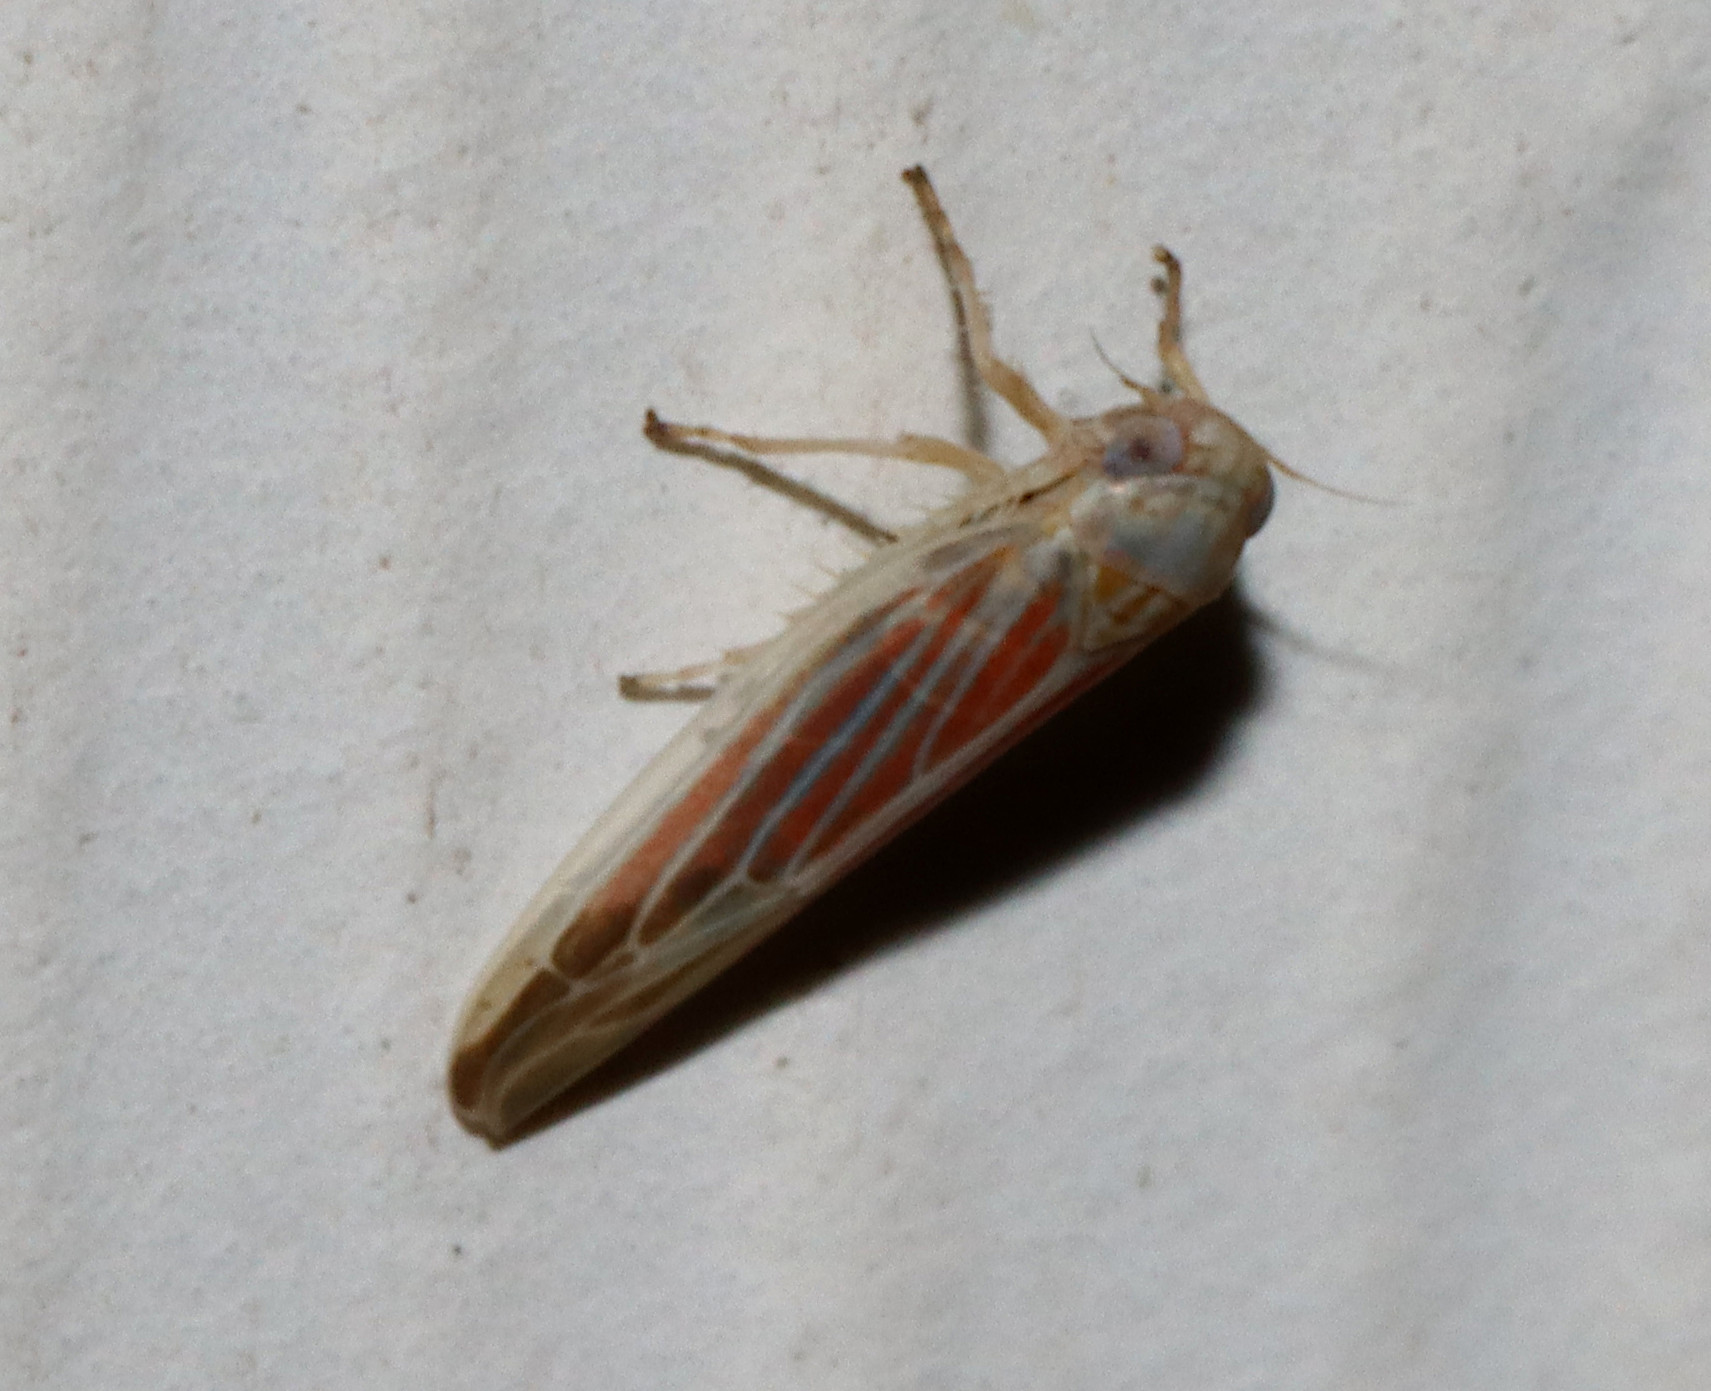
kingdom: Animalia
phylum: Arthropoda
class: Insecta
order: Hemiptera
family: Cicadellidae
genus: Balclutha
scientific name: Balclutha rubrostriata
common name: Red-streaked leafhopper
